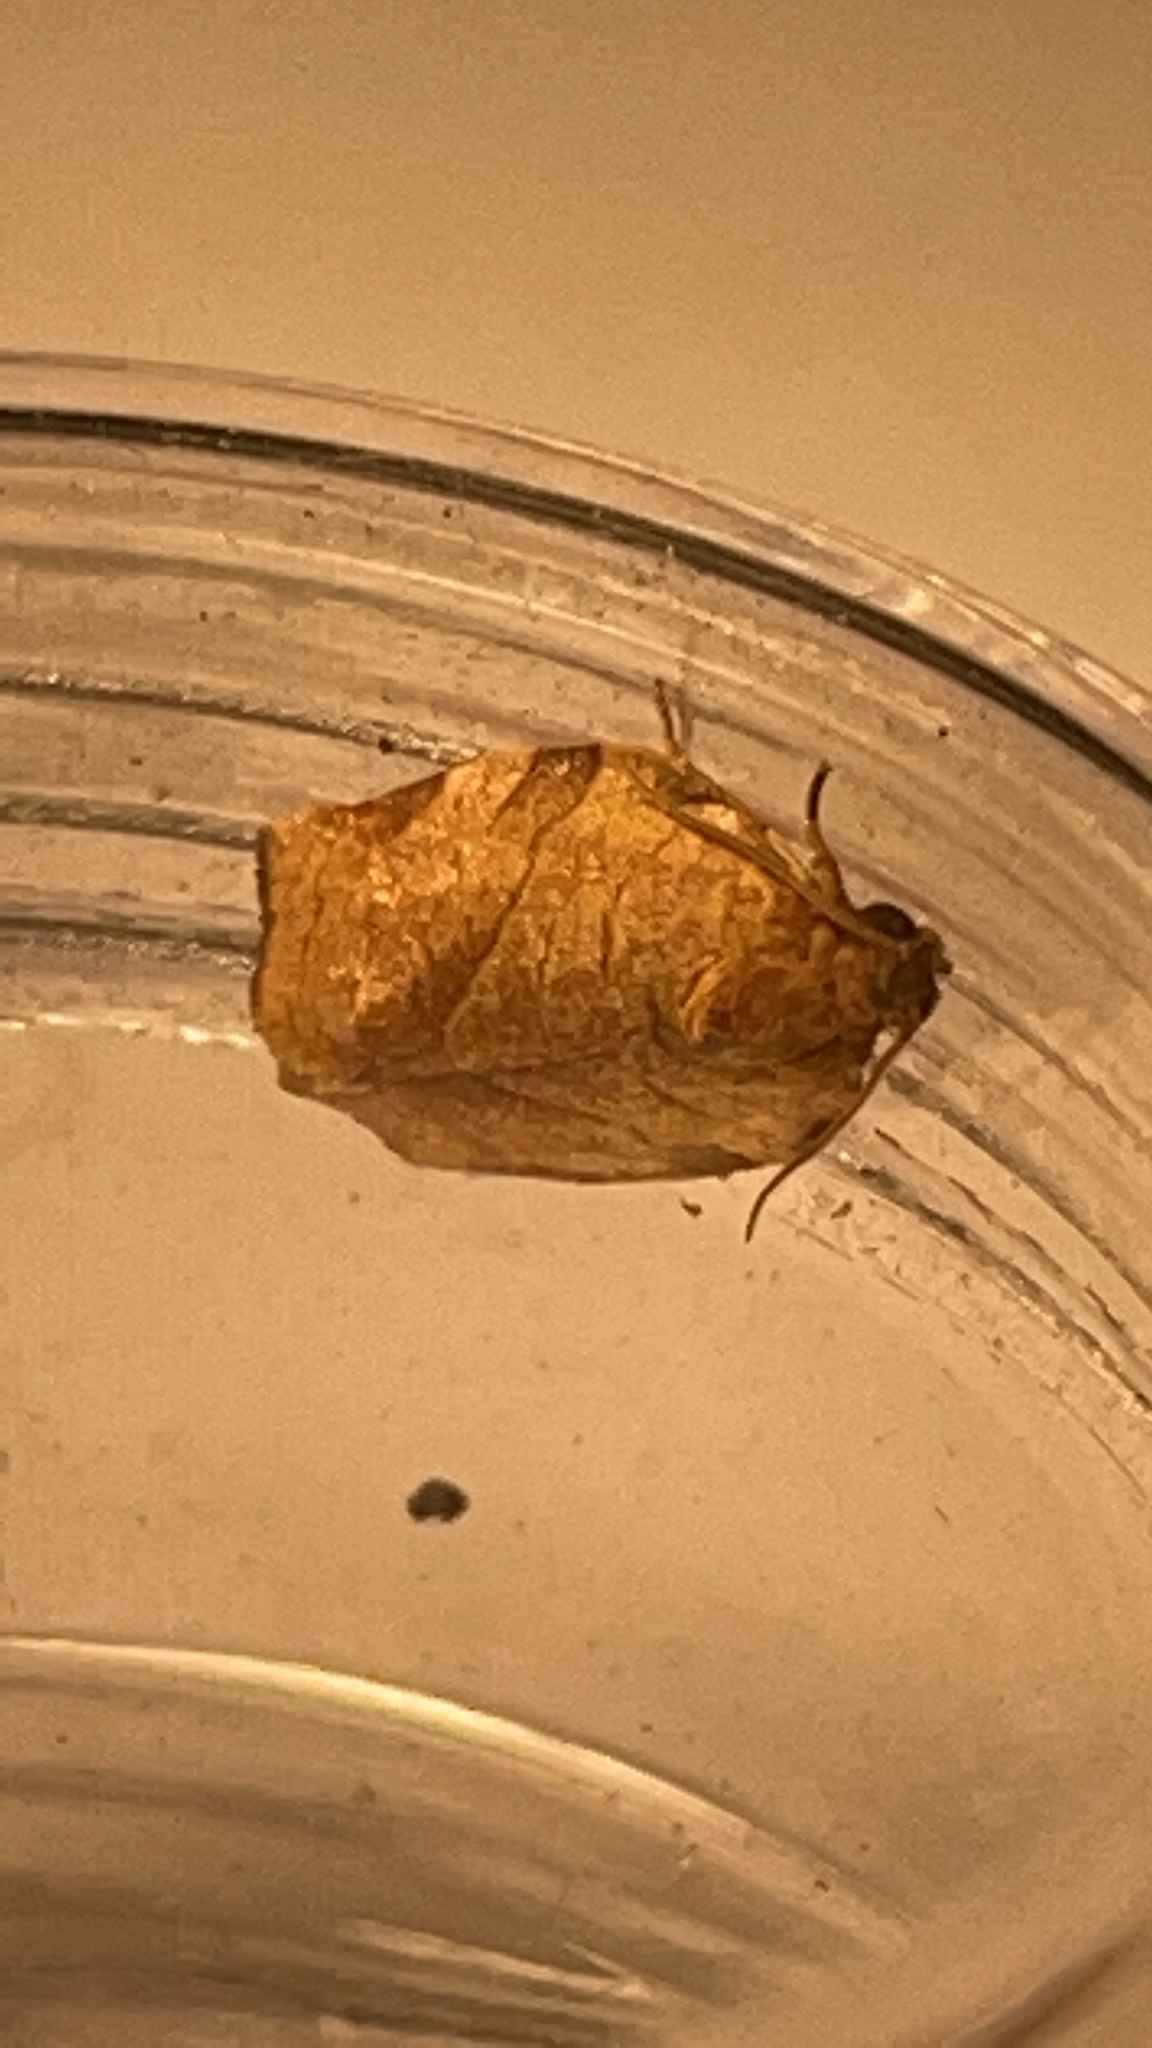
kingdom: Animalia
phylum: Arthropoda
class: Insecta
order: Lepidoptera
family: Tortricidae
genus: Choristoneura
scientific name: Choristoneura rosaceana
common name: Oblique-banded leafroller moth
